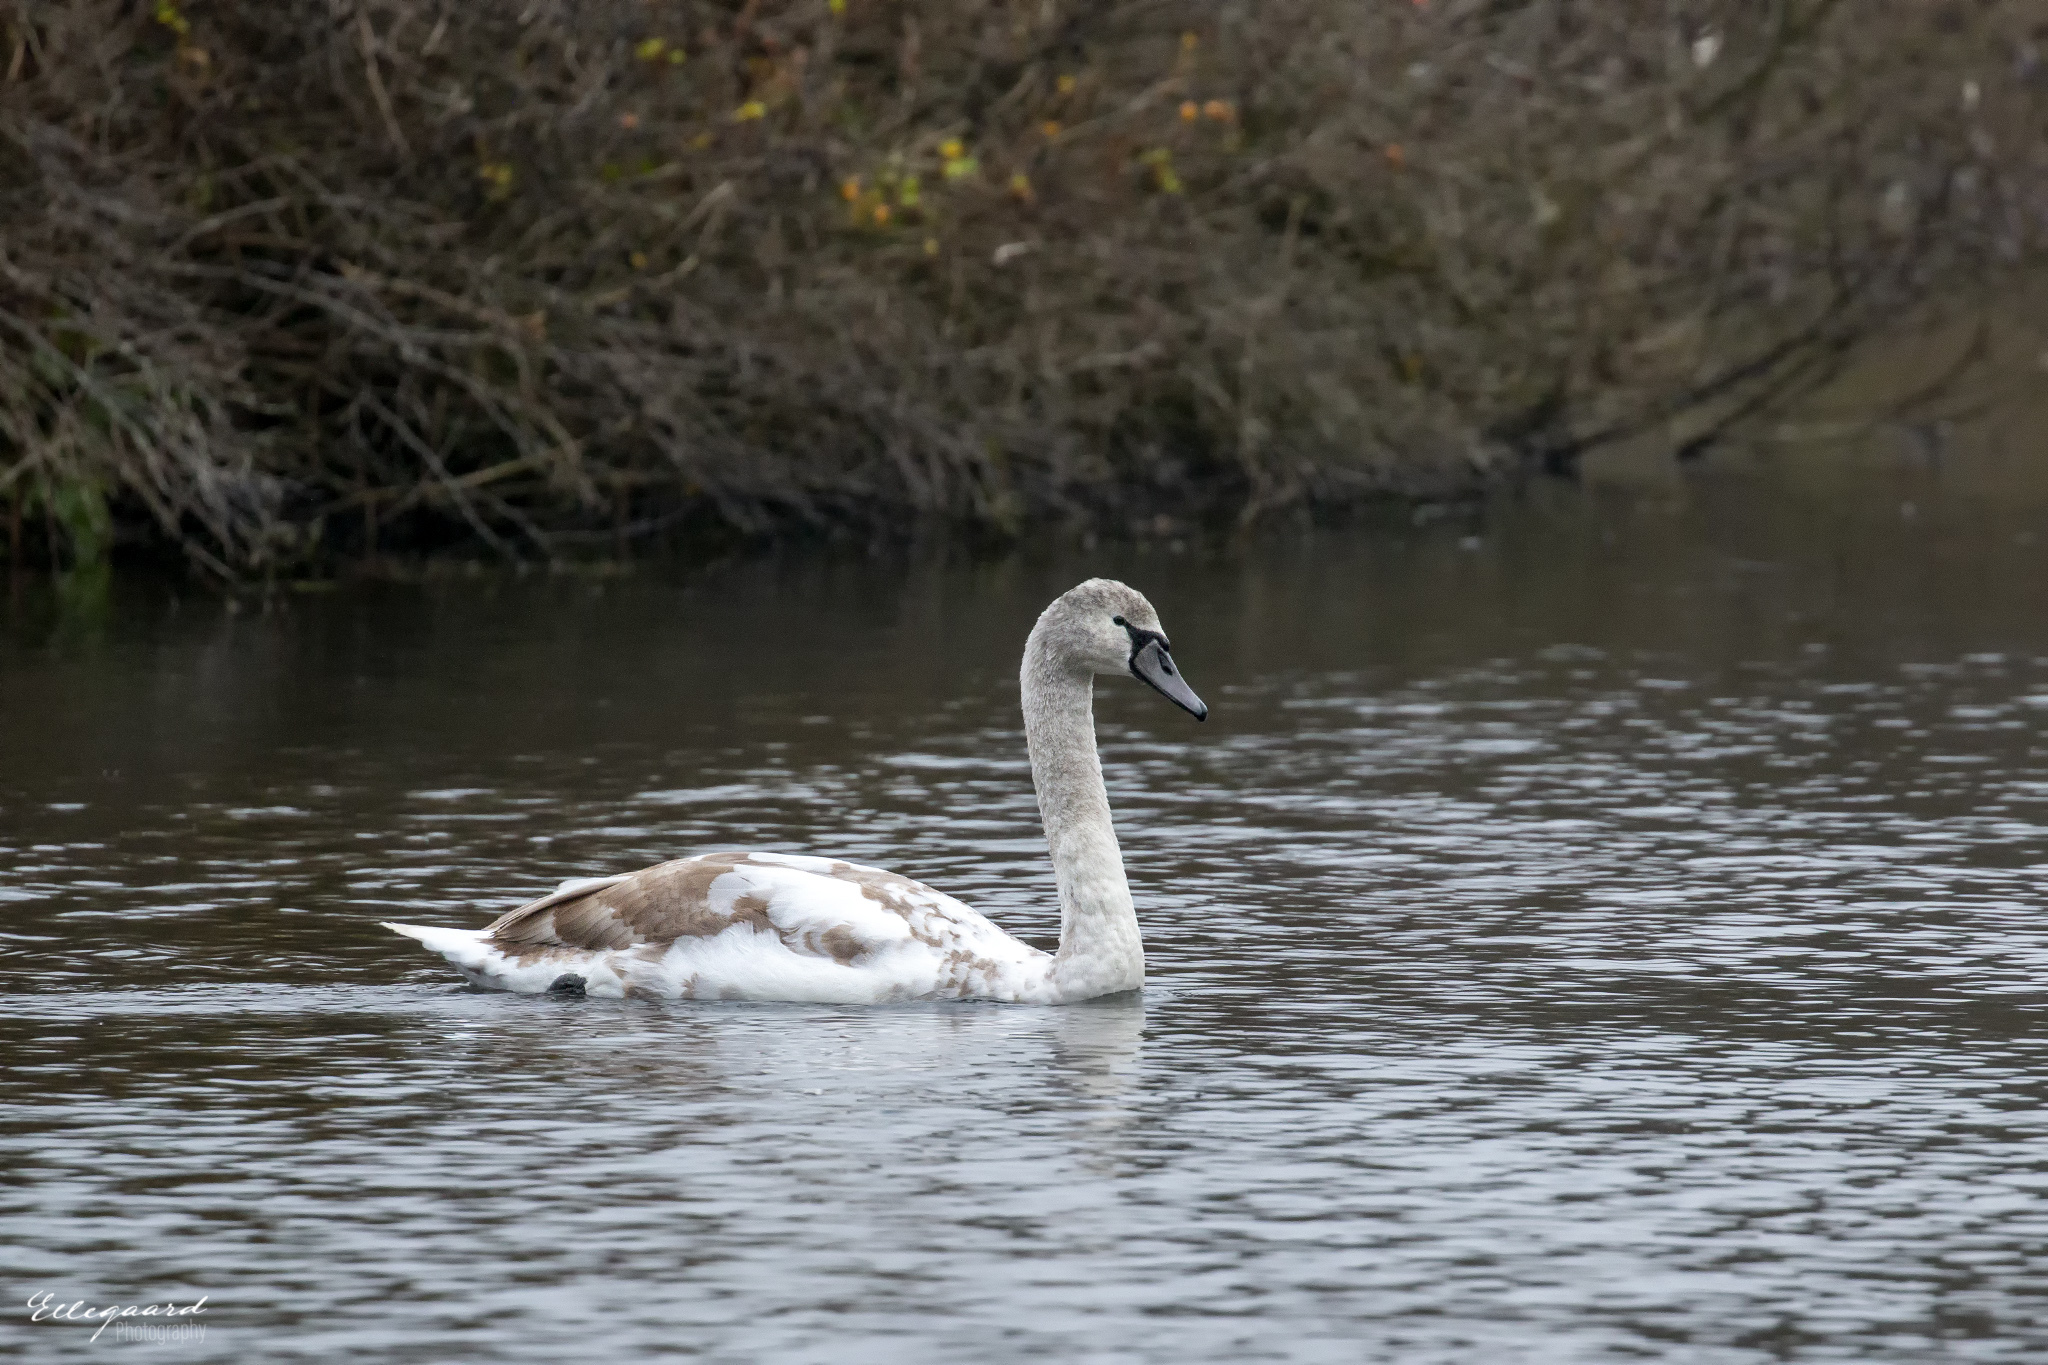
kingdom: Animalia
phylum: Chordata
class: Aves
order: Anseriformes
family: Anatidae
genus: Cygnus
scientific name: Cygnus olor
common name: Mute swan
